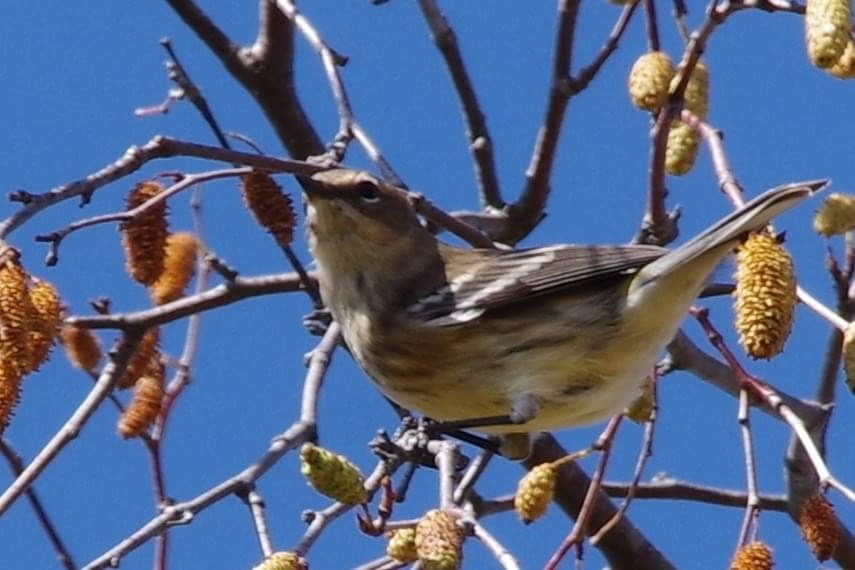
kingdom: Animalia
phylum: Chordata
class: Aves
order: Passeriformes
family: Parulidae
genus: Setophaga
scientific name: Setophaga coronata
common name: Myrtle warbler
